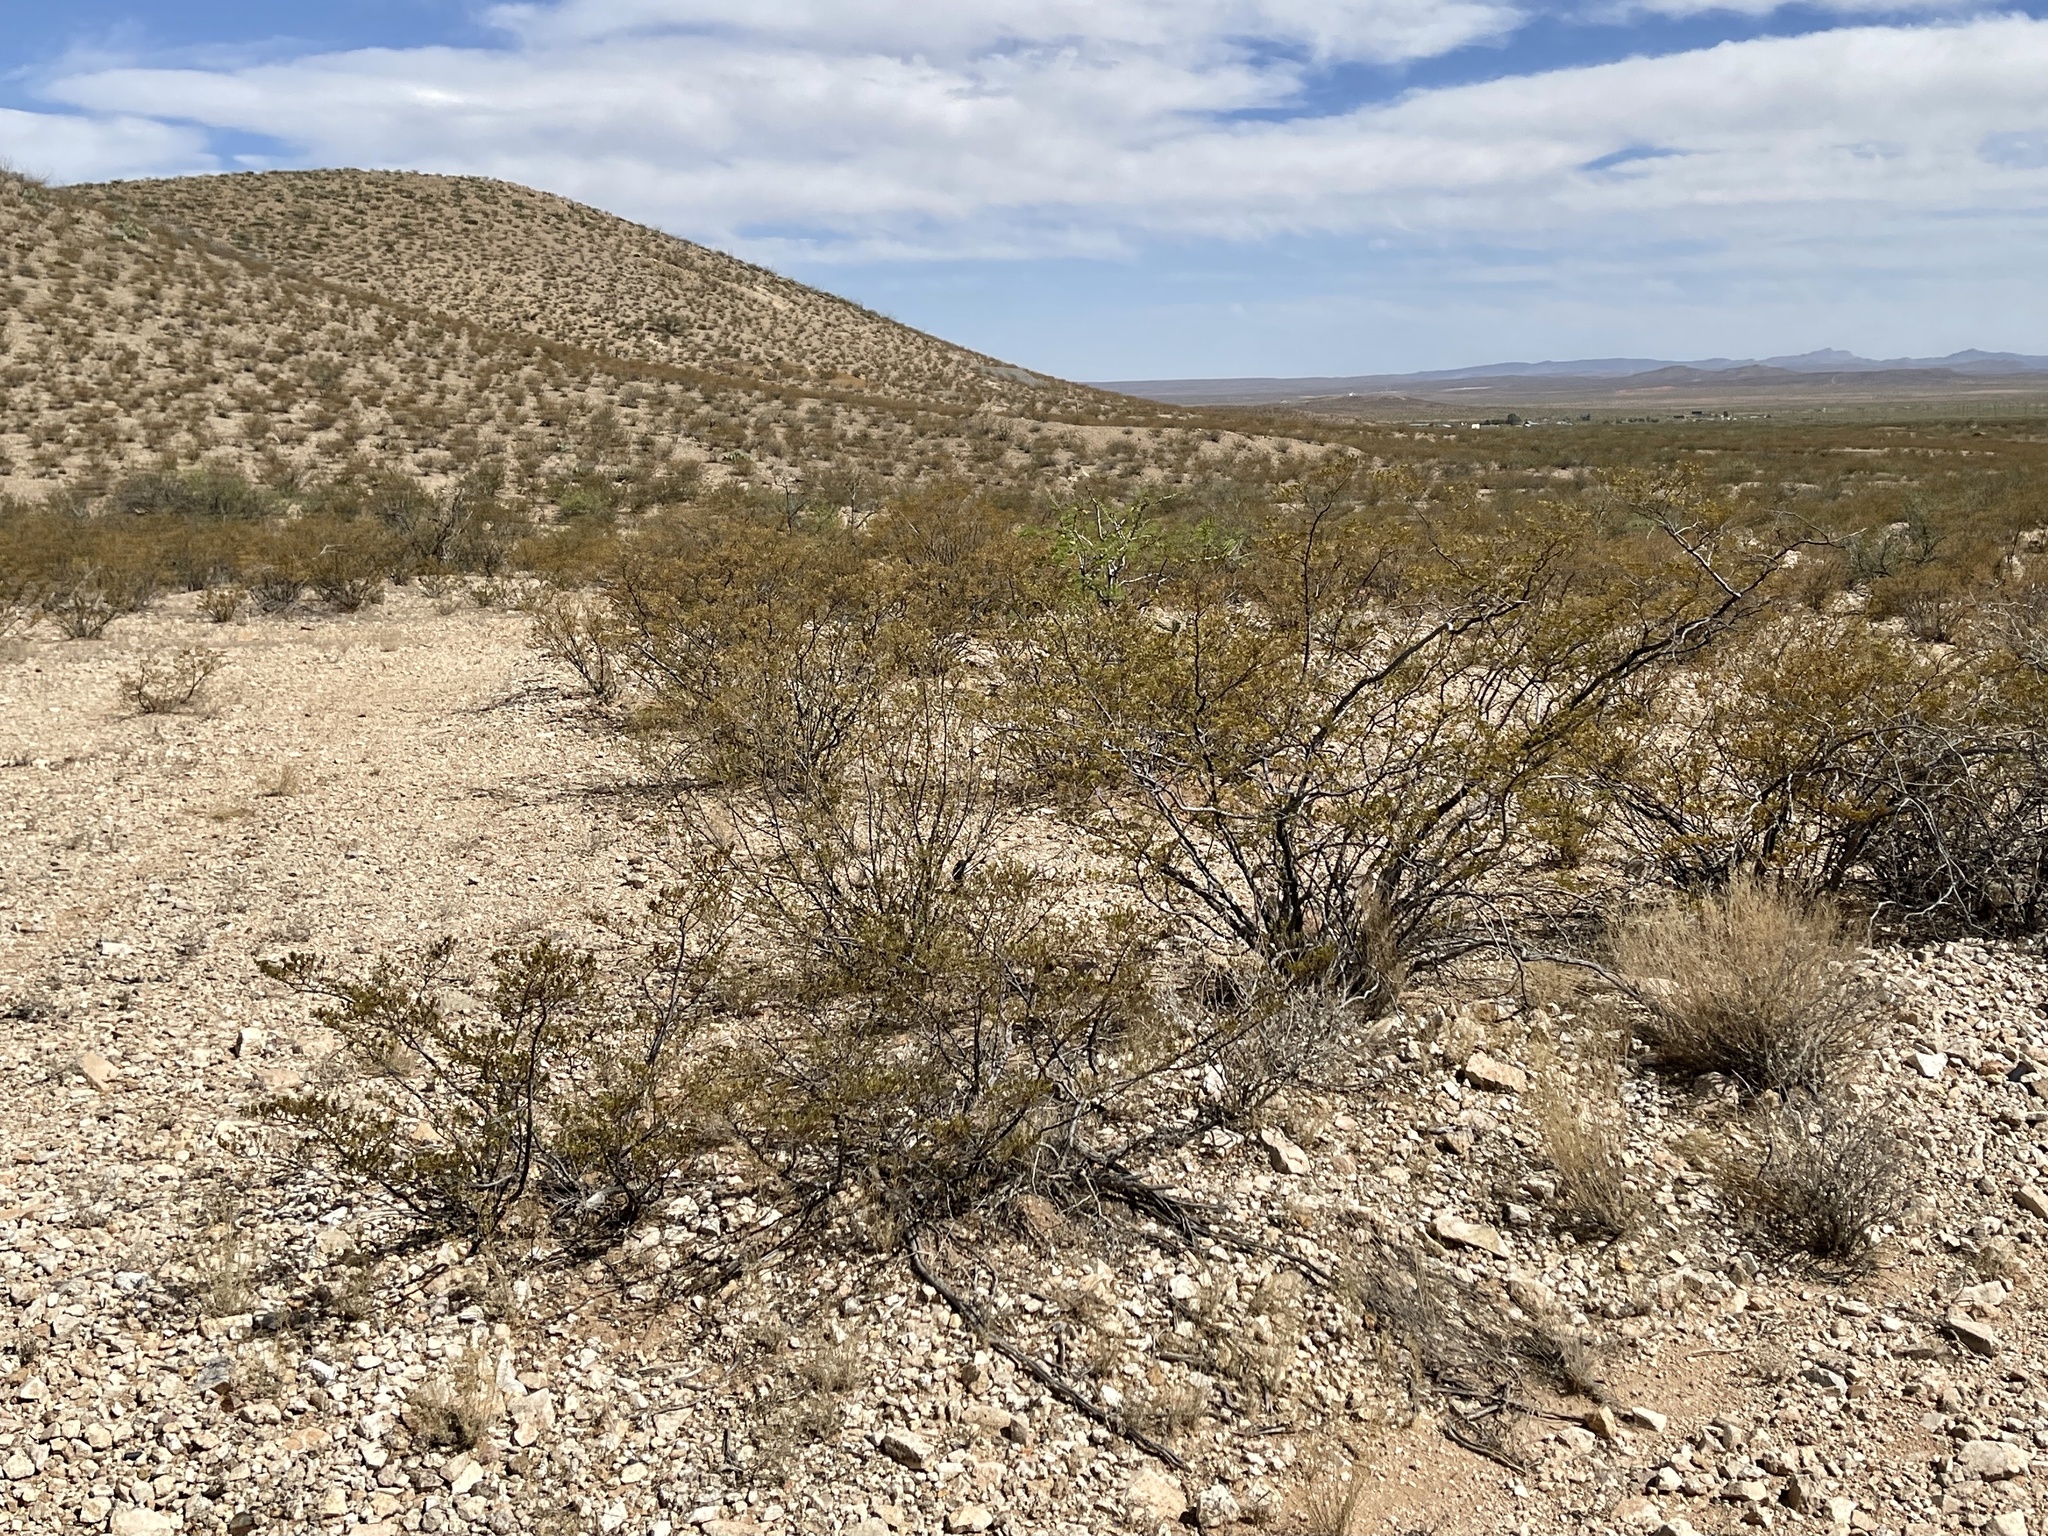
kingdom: Plantae
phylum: Tracheophyta
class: Magnoliopsida
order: Zygophyllales
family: Zygophyllaceae
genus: Larrea
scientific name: Larrea tridentata
